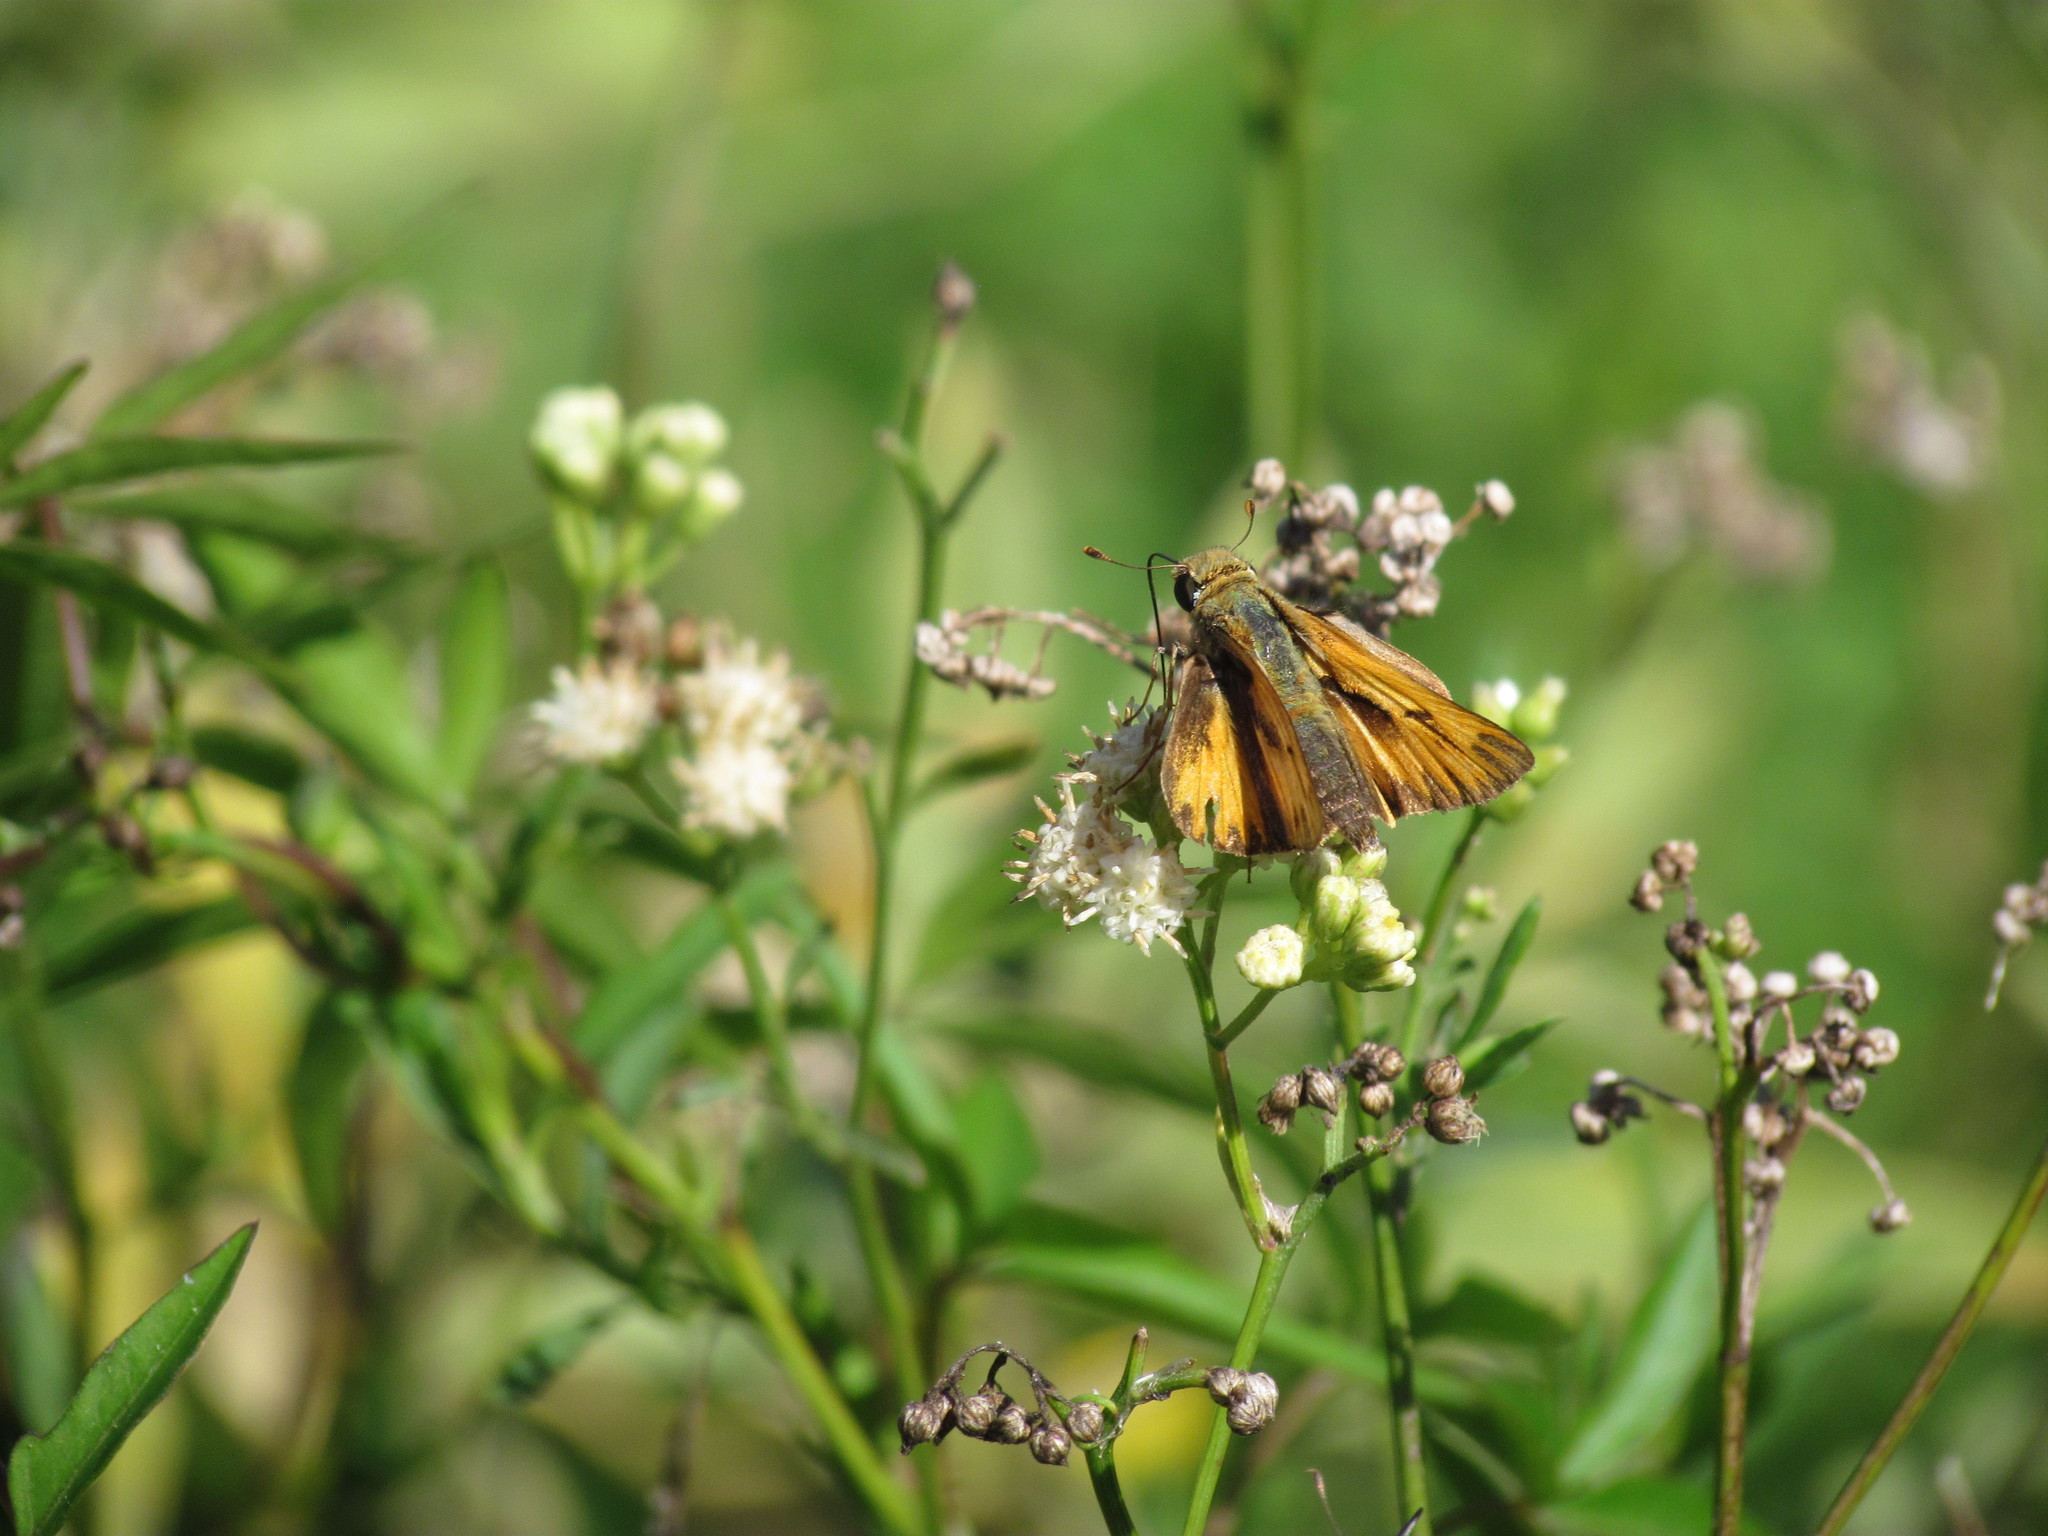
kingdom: Animalia
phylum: Arthropoda
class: Insecta
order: Lepidoptera
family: Hesperiidae
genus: Hylephila
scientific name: Hylephila phyleus
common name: Fiery skipper
